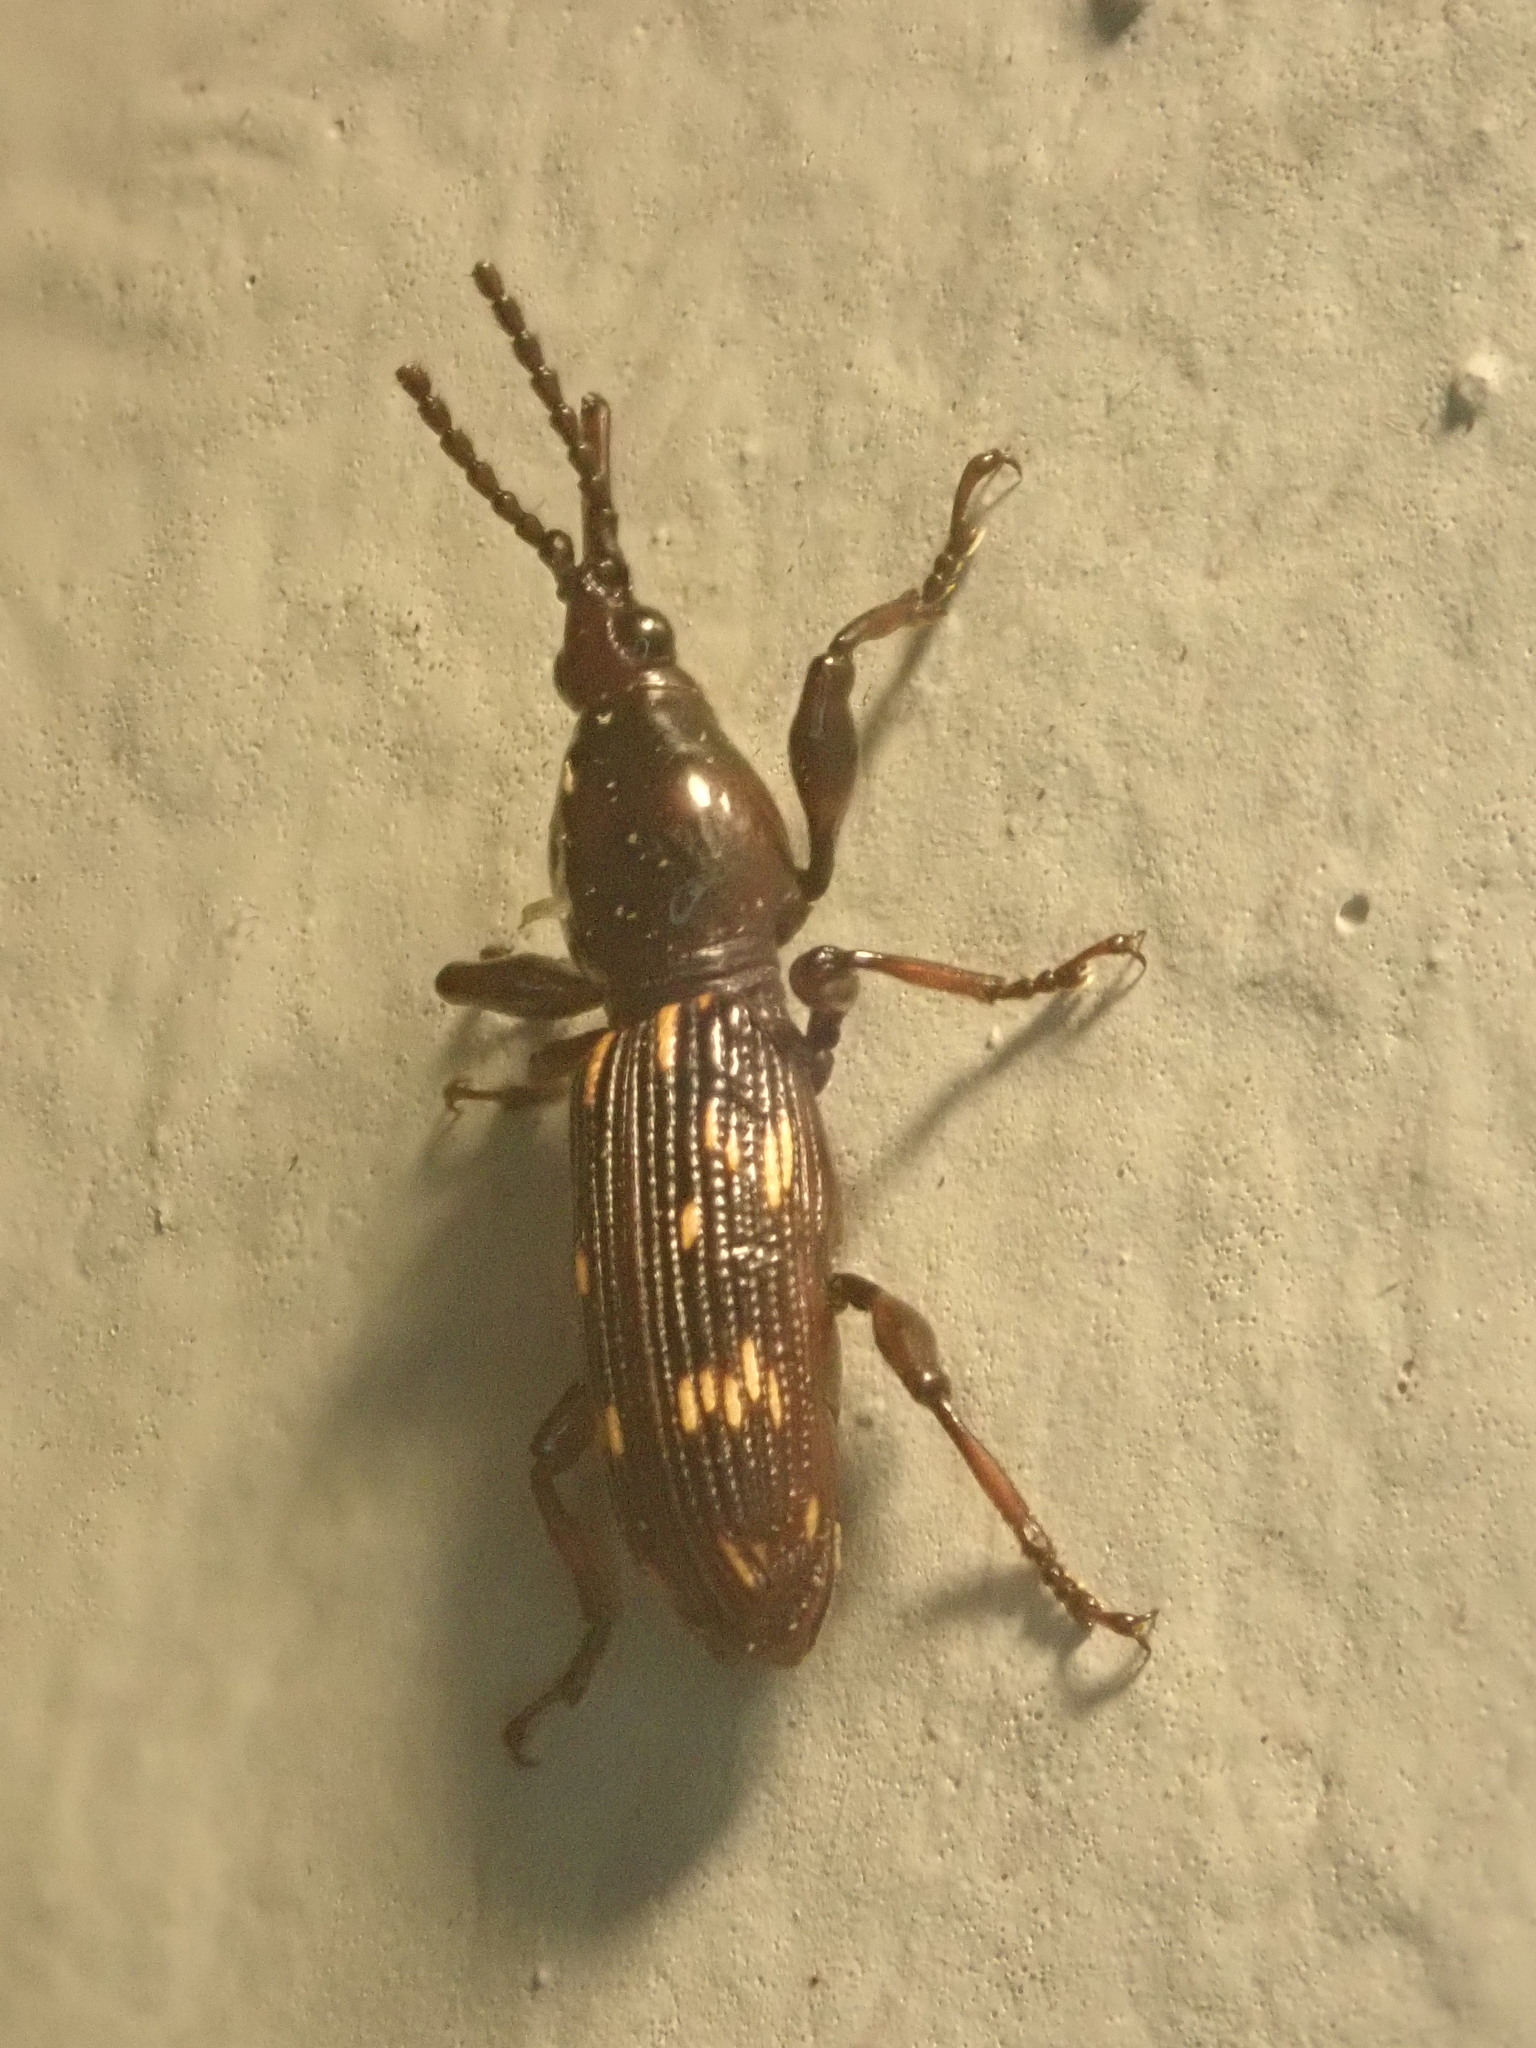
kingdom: Animalia
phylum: Arthropoda
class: Insecta
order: Coleoptera
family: Brentidae
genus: Arrenodes
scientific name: Arrenodes minutus
